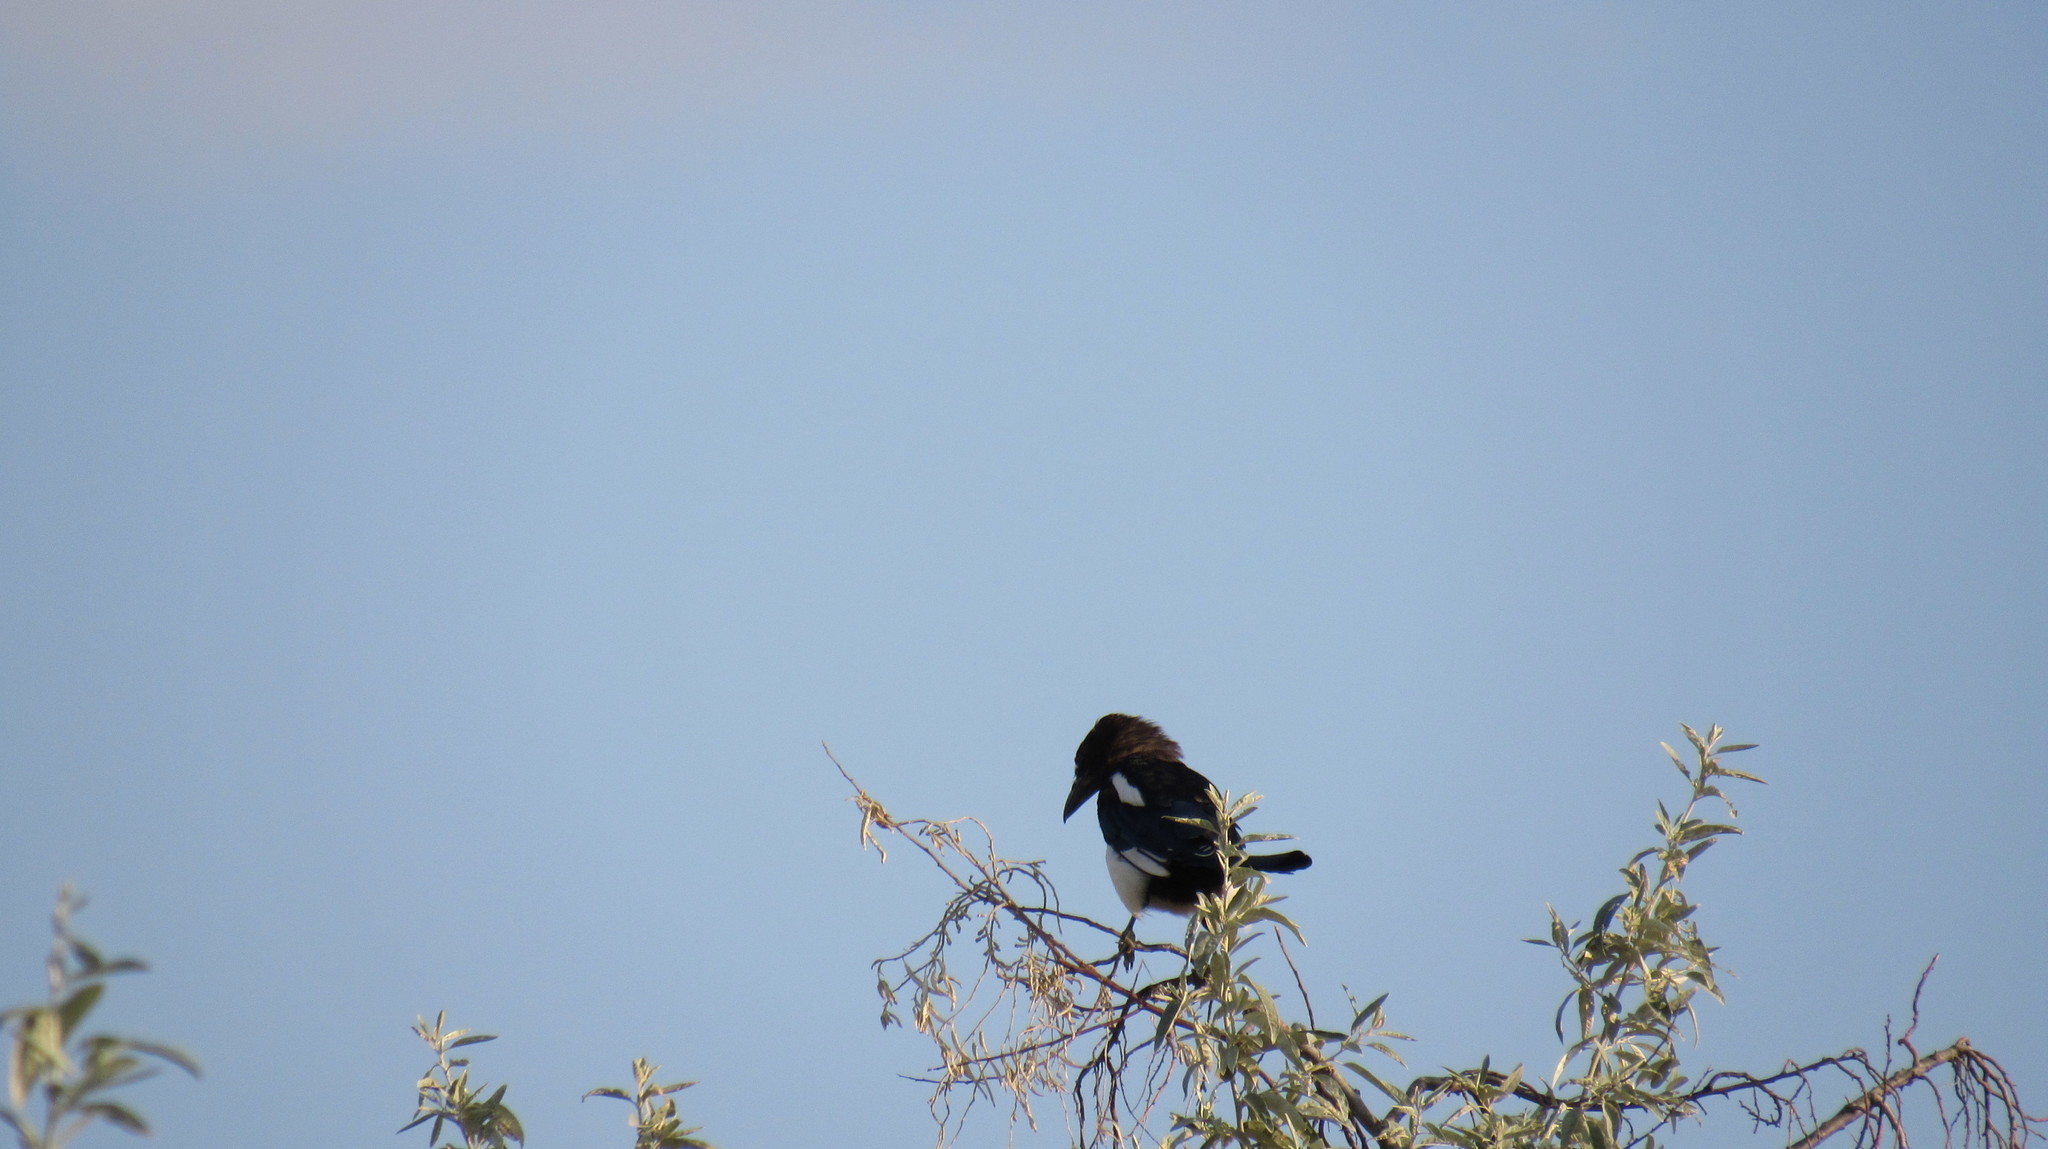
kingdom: Animalia
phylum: Chordata
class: Aves
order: Passeriformes
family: Corvidae
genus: Pica
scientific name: Pica pica
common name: Eurasian magpie
